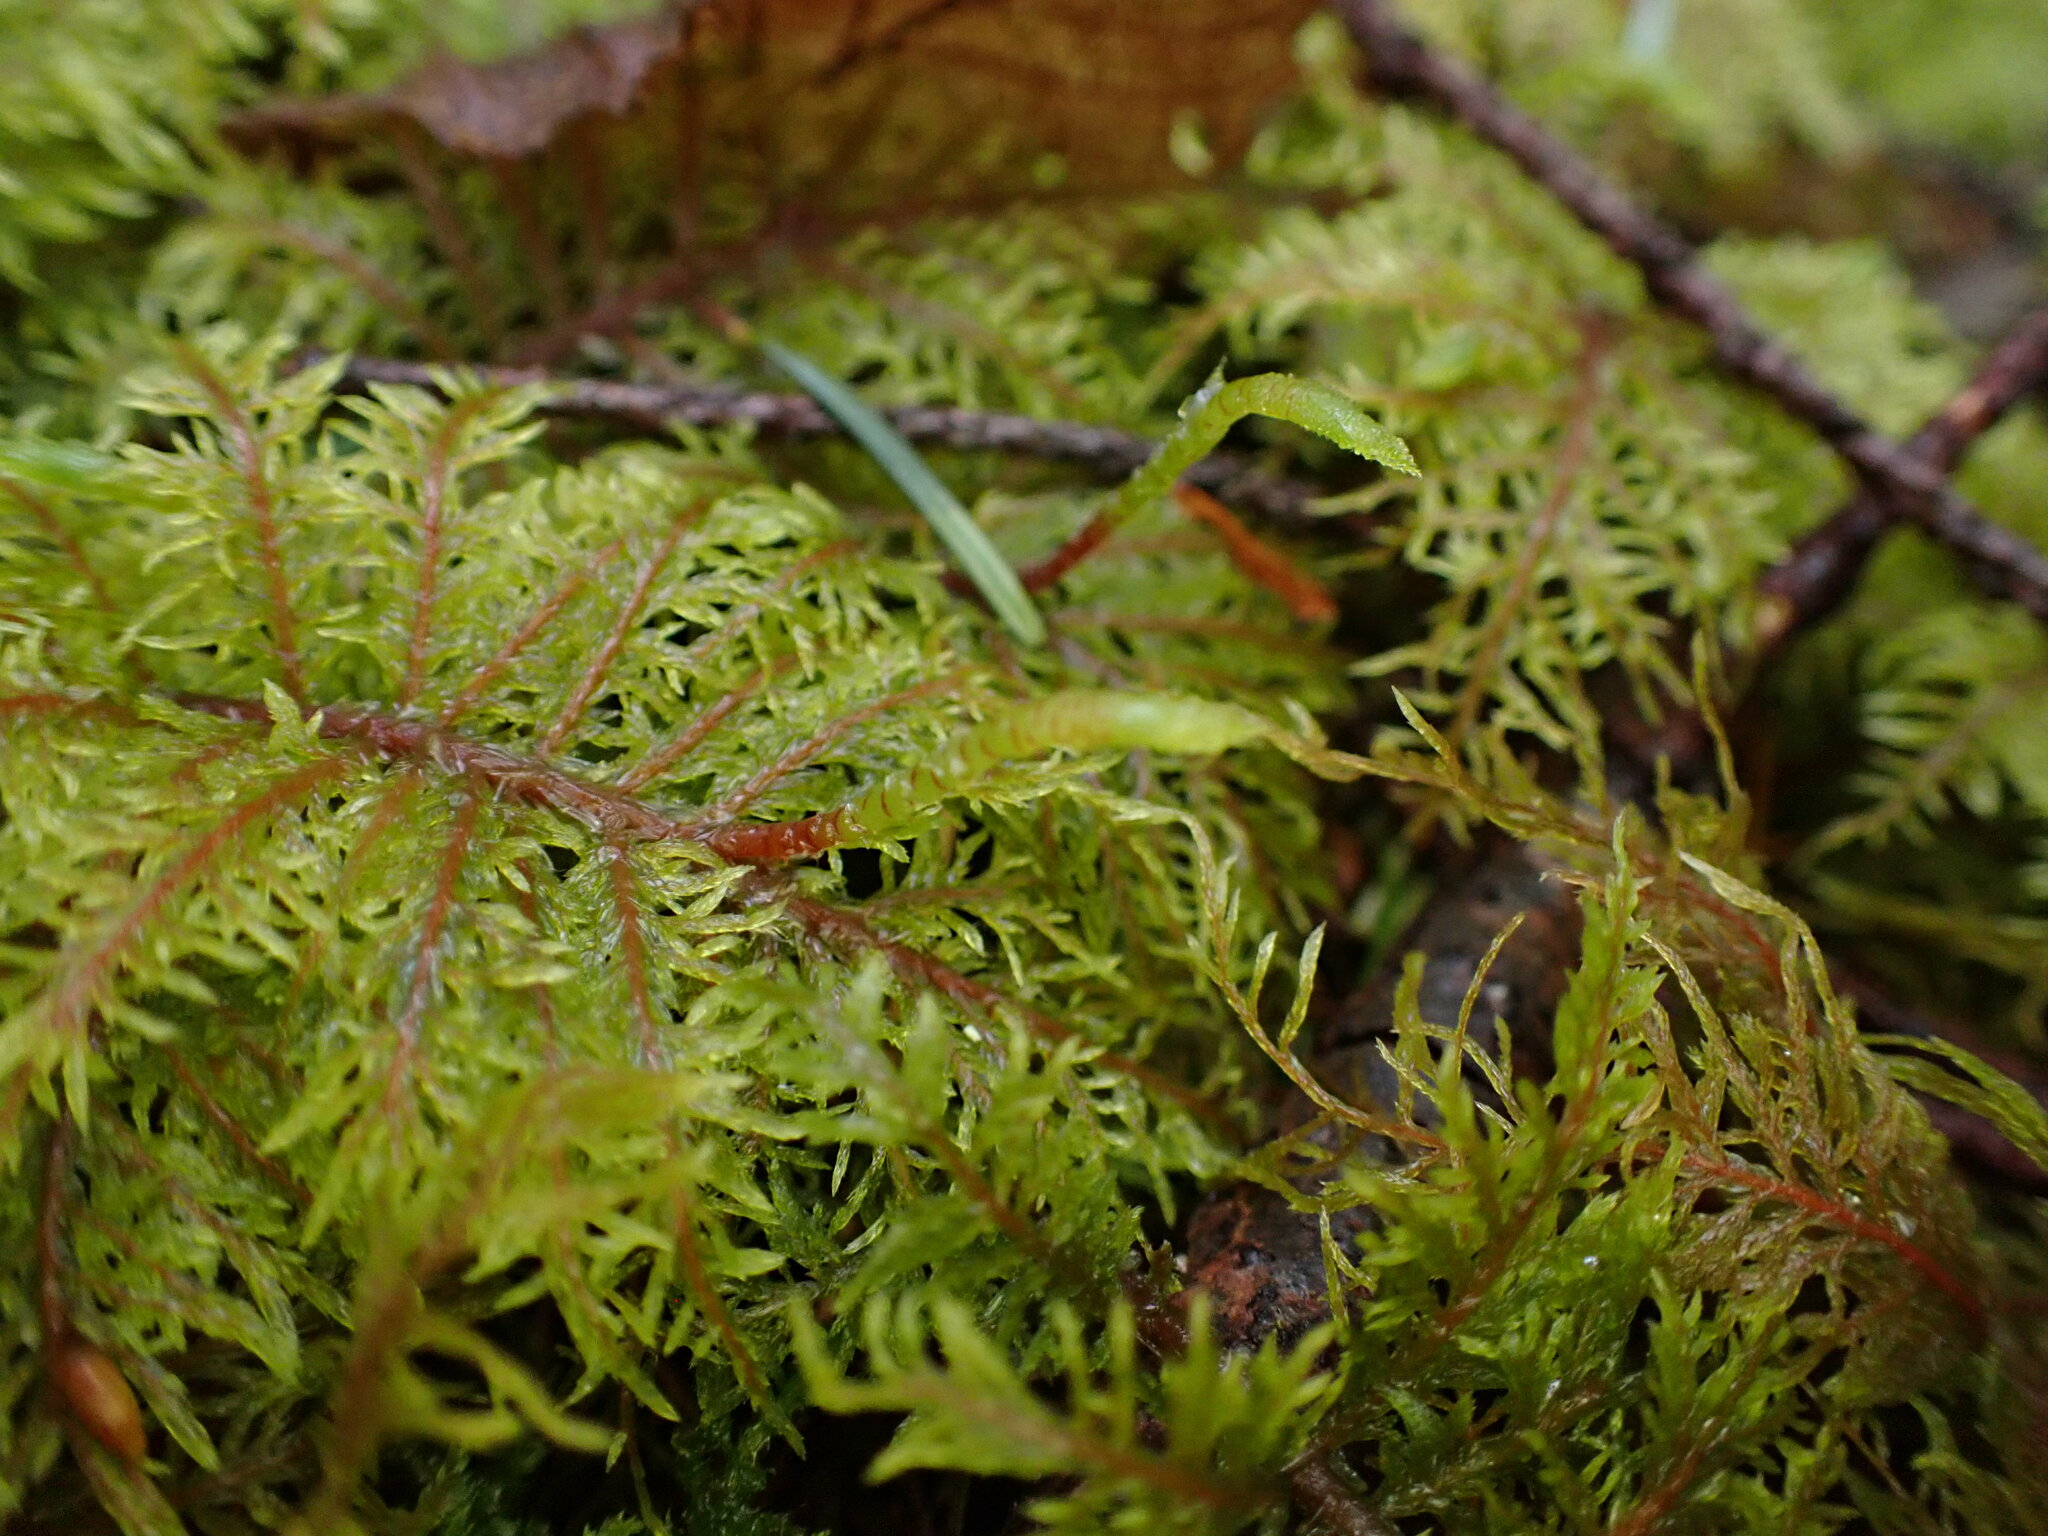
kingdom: Plantae
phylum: Bryophyta
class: Bryopsida
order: Hypnales
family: Hylocomiaceae
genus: Hylocomium
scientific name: Hylocomium splendens
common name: Stairstep moss
